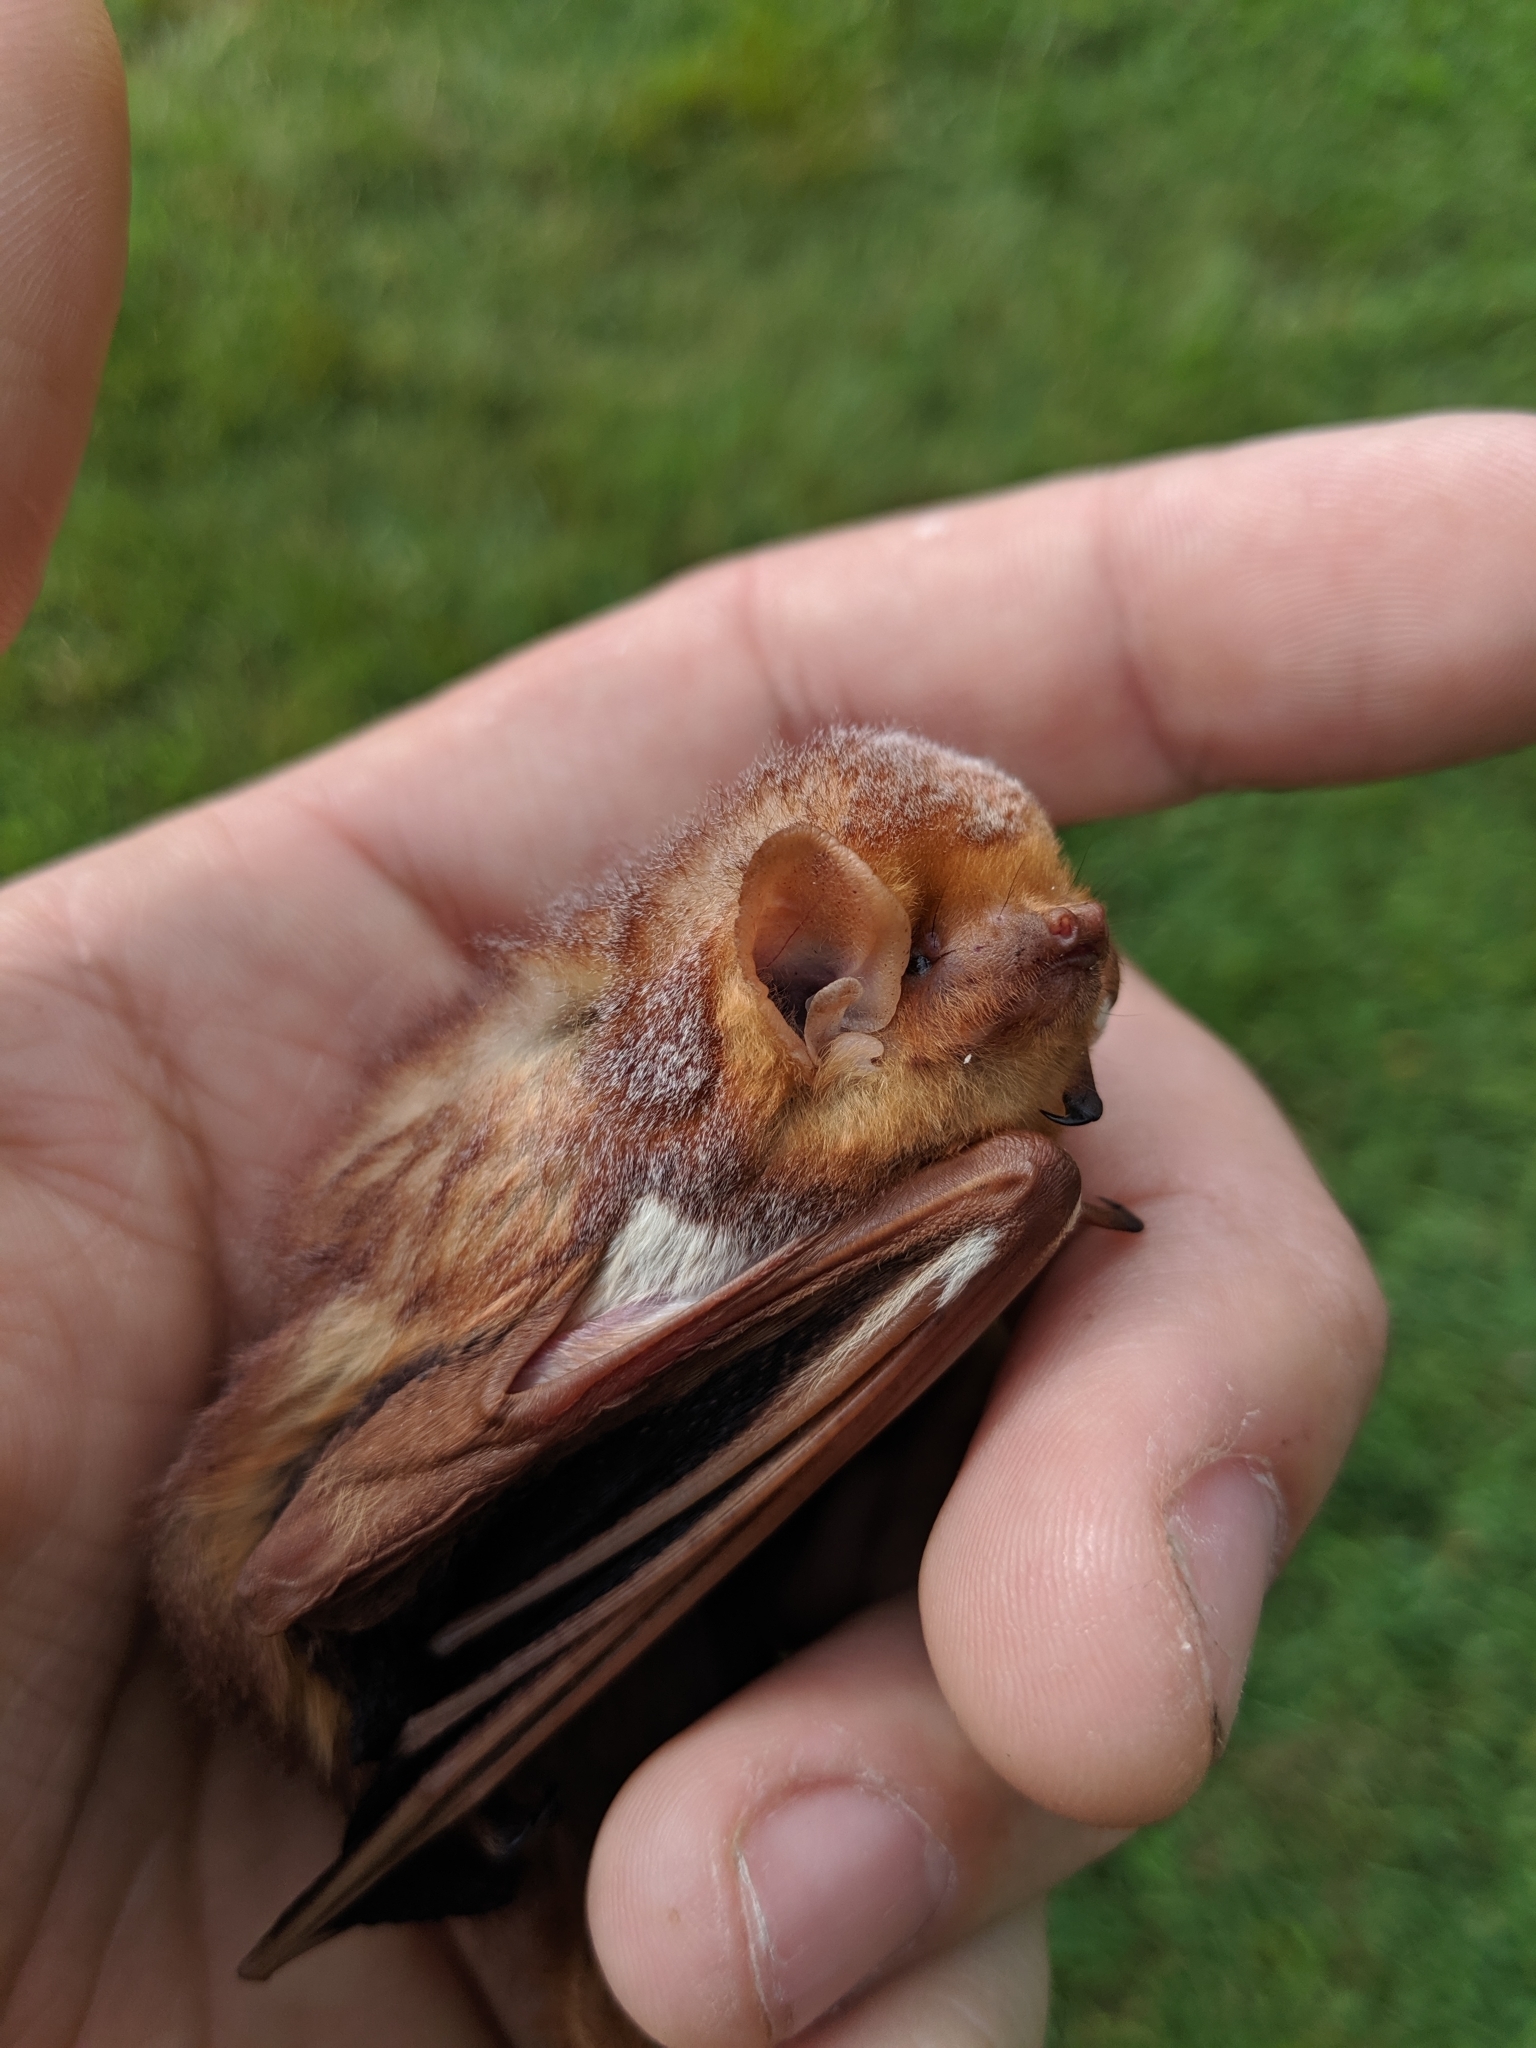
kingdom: Animalia
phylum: Chordata
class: Mammalia
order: Chiroptera
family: Vespertilionidae
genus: Lasiurus
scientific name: Lasiurus borealis
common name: Eastern red bat
